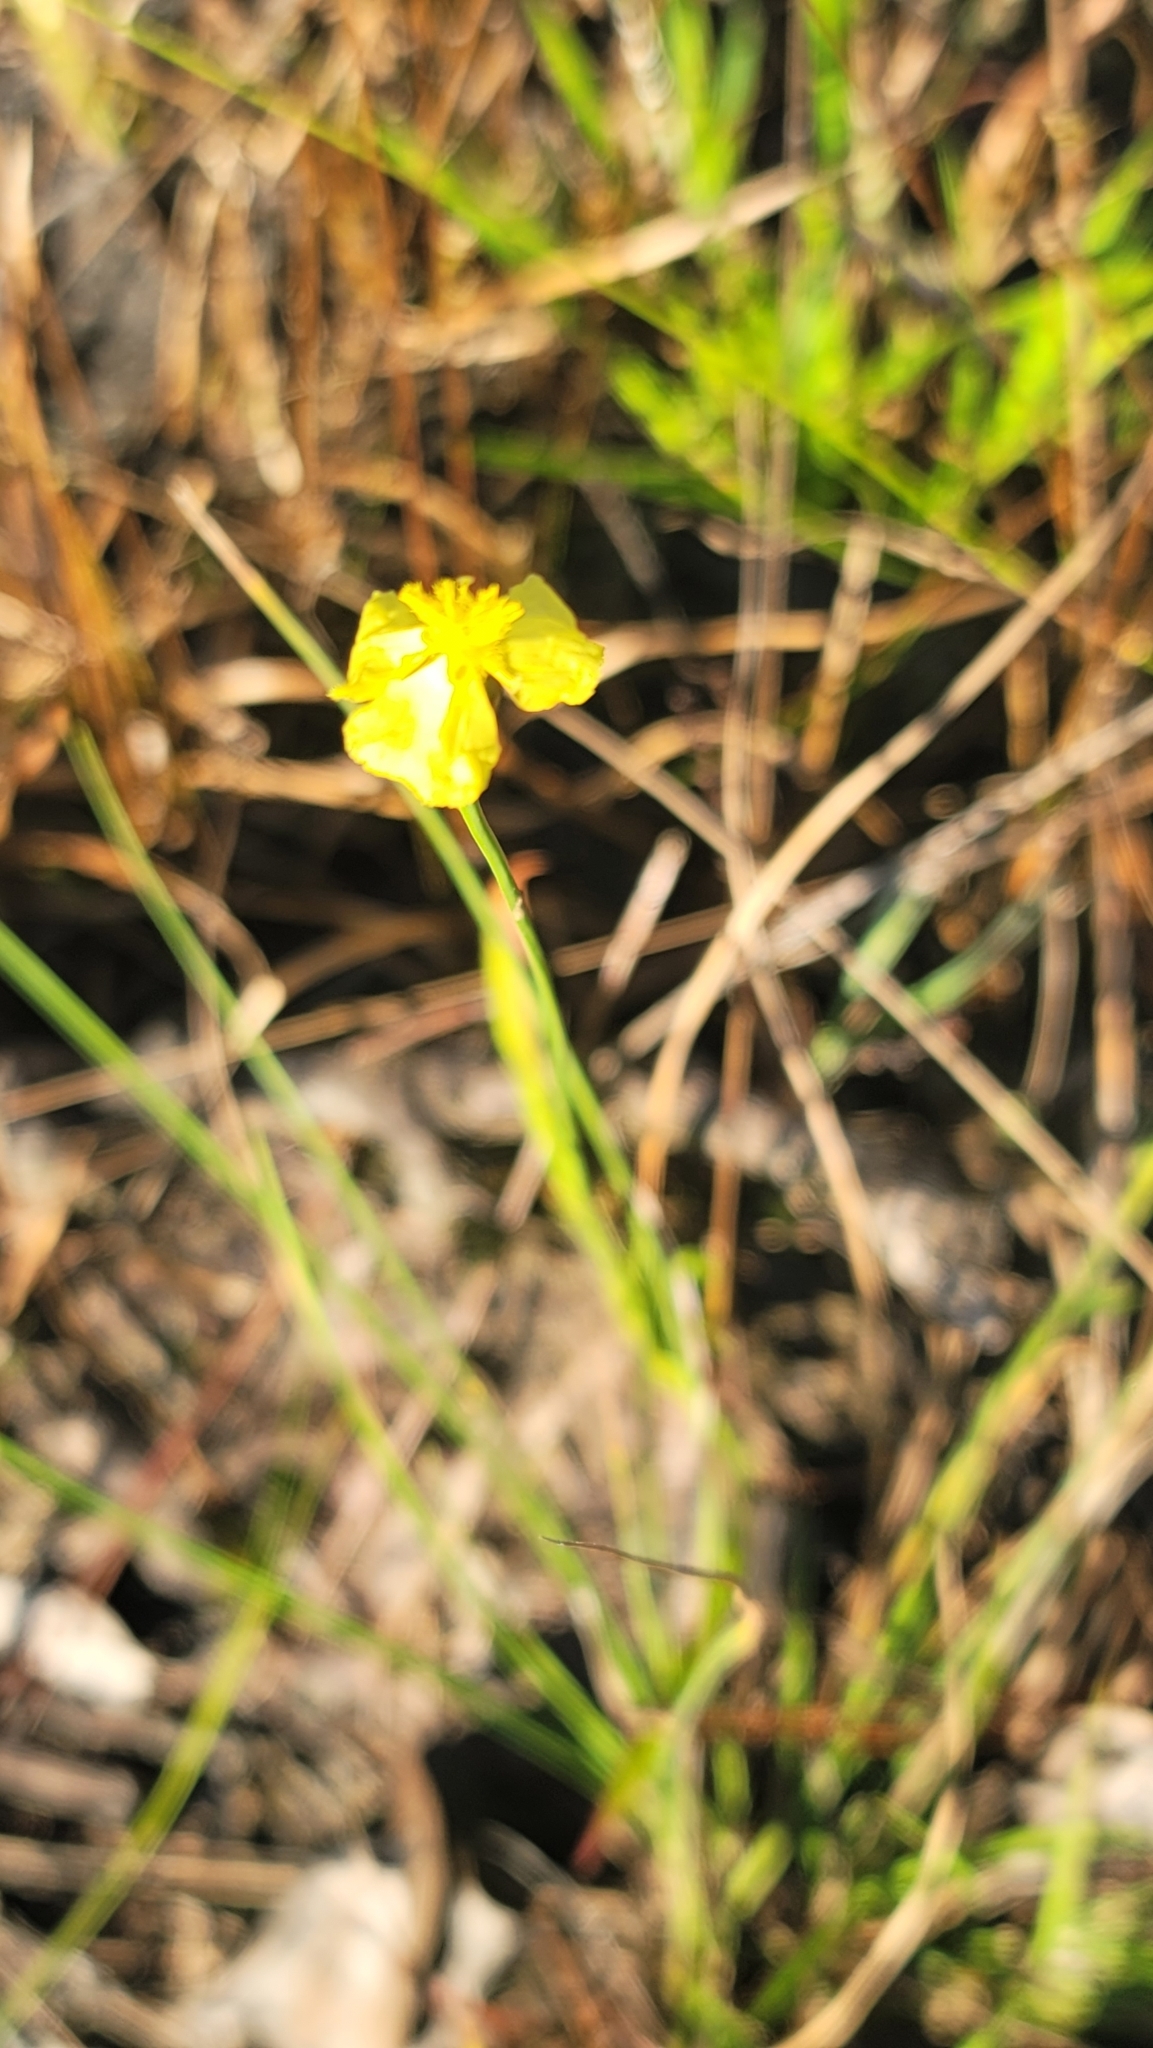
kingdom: Plantae
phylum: Tracheophyta
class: Liliopsida
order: Poales
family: Xyridaceae
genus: Xyris
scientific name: Xyris caroliniana
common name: Carolina yellow-eyed-grass
